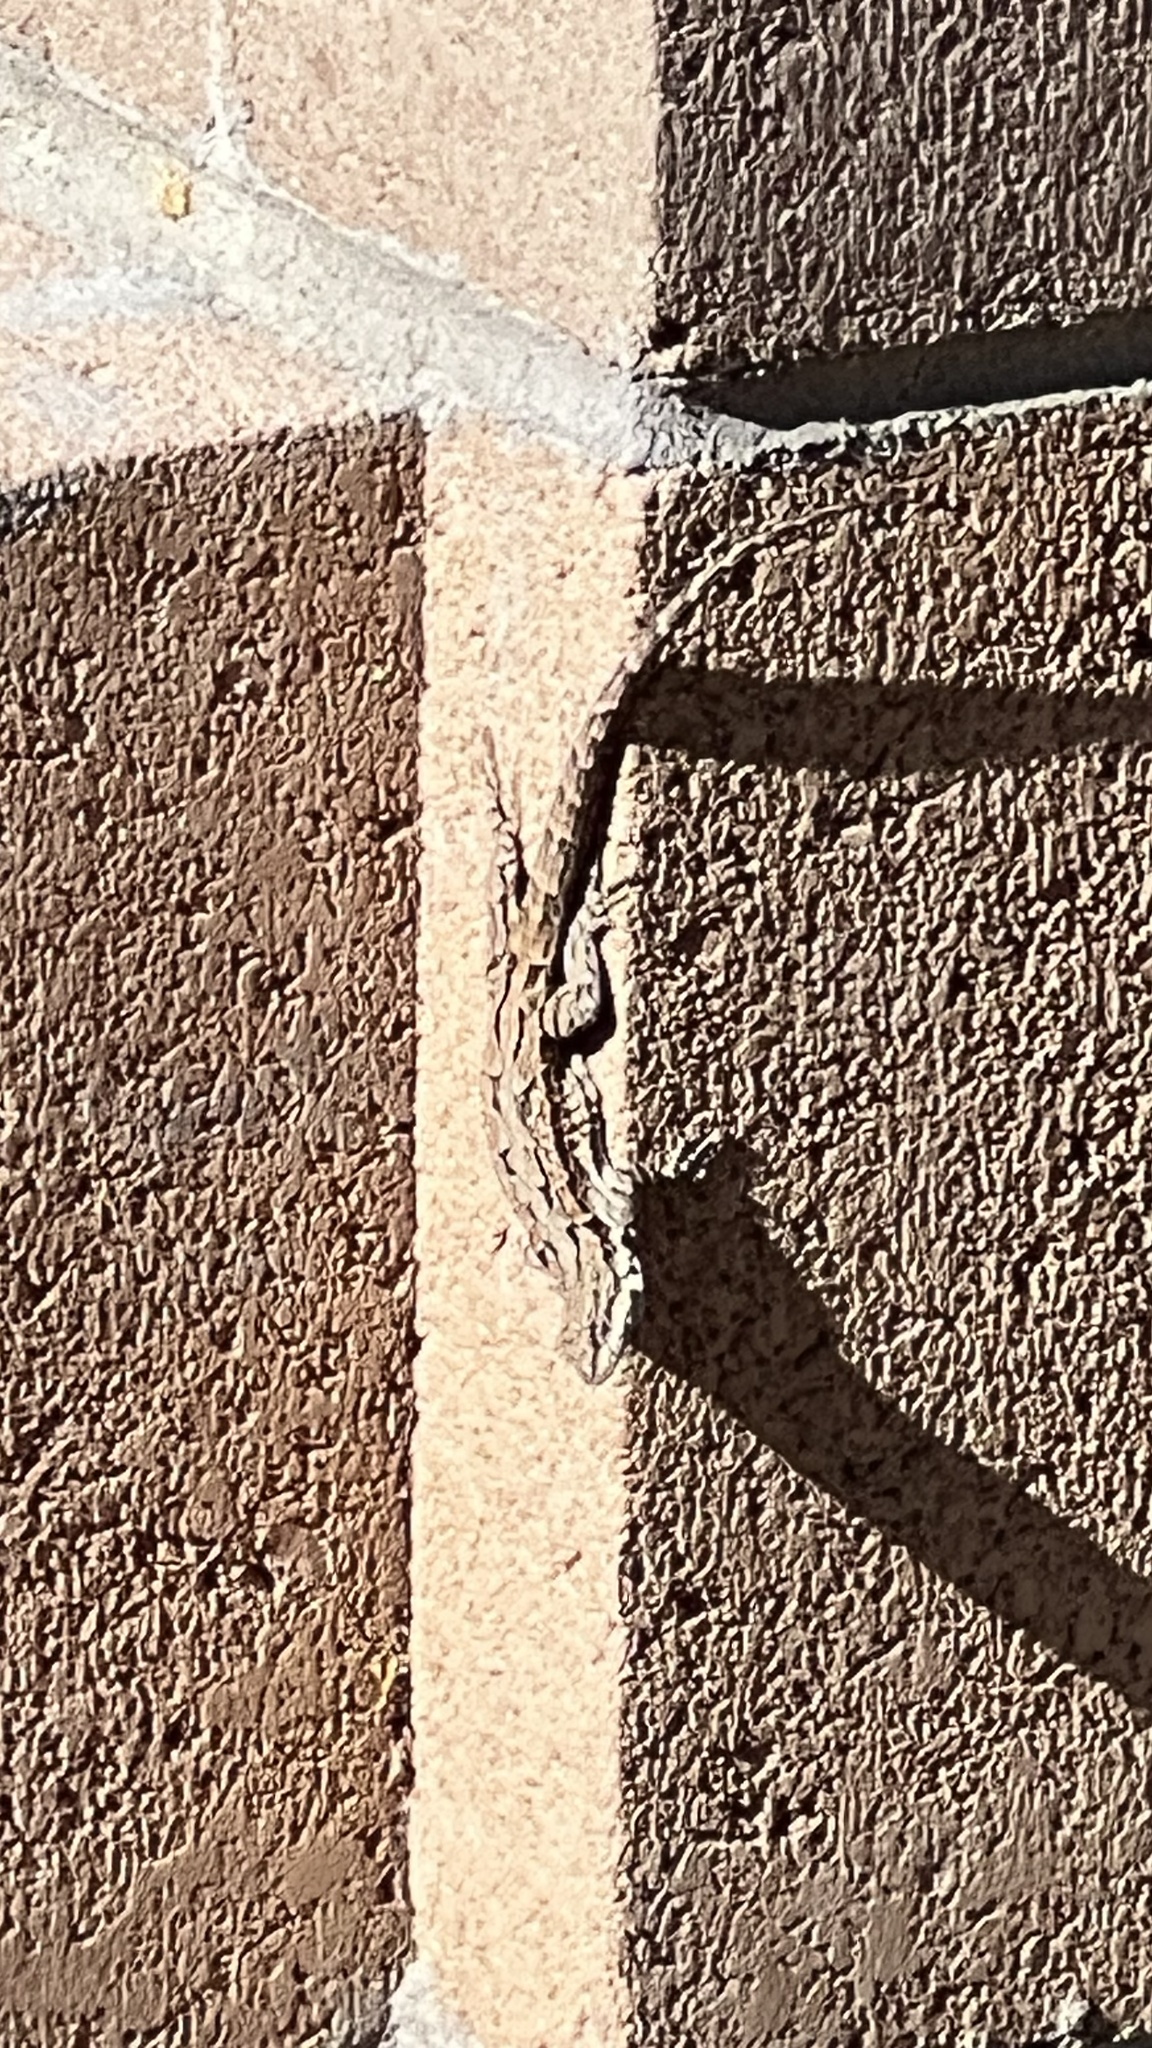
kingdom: Animalia
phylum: Chordata
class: Squamata
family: Phrynosomatidae
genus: Urosaurus
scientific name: Urosaurus ornatus
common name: Ornate tree lizard
